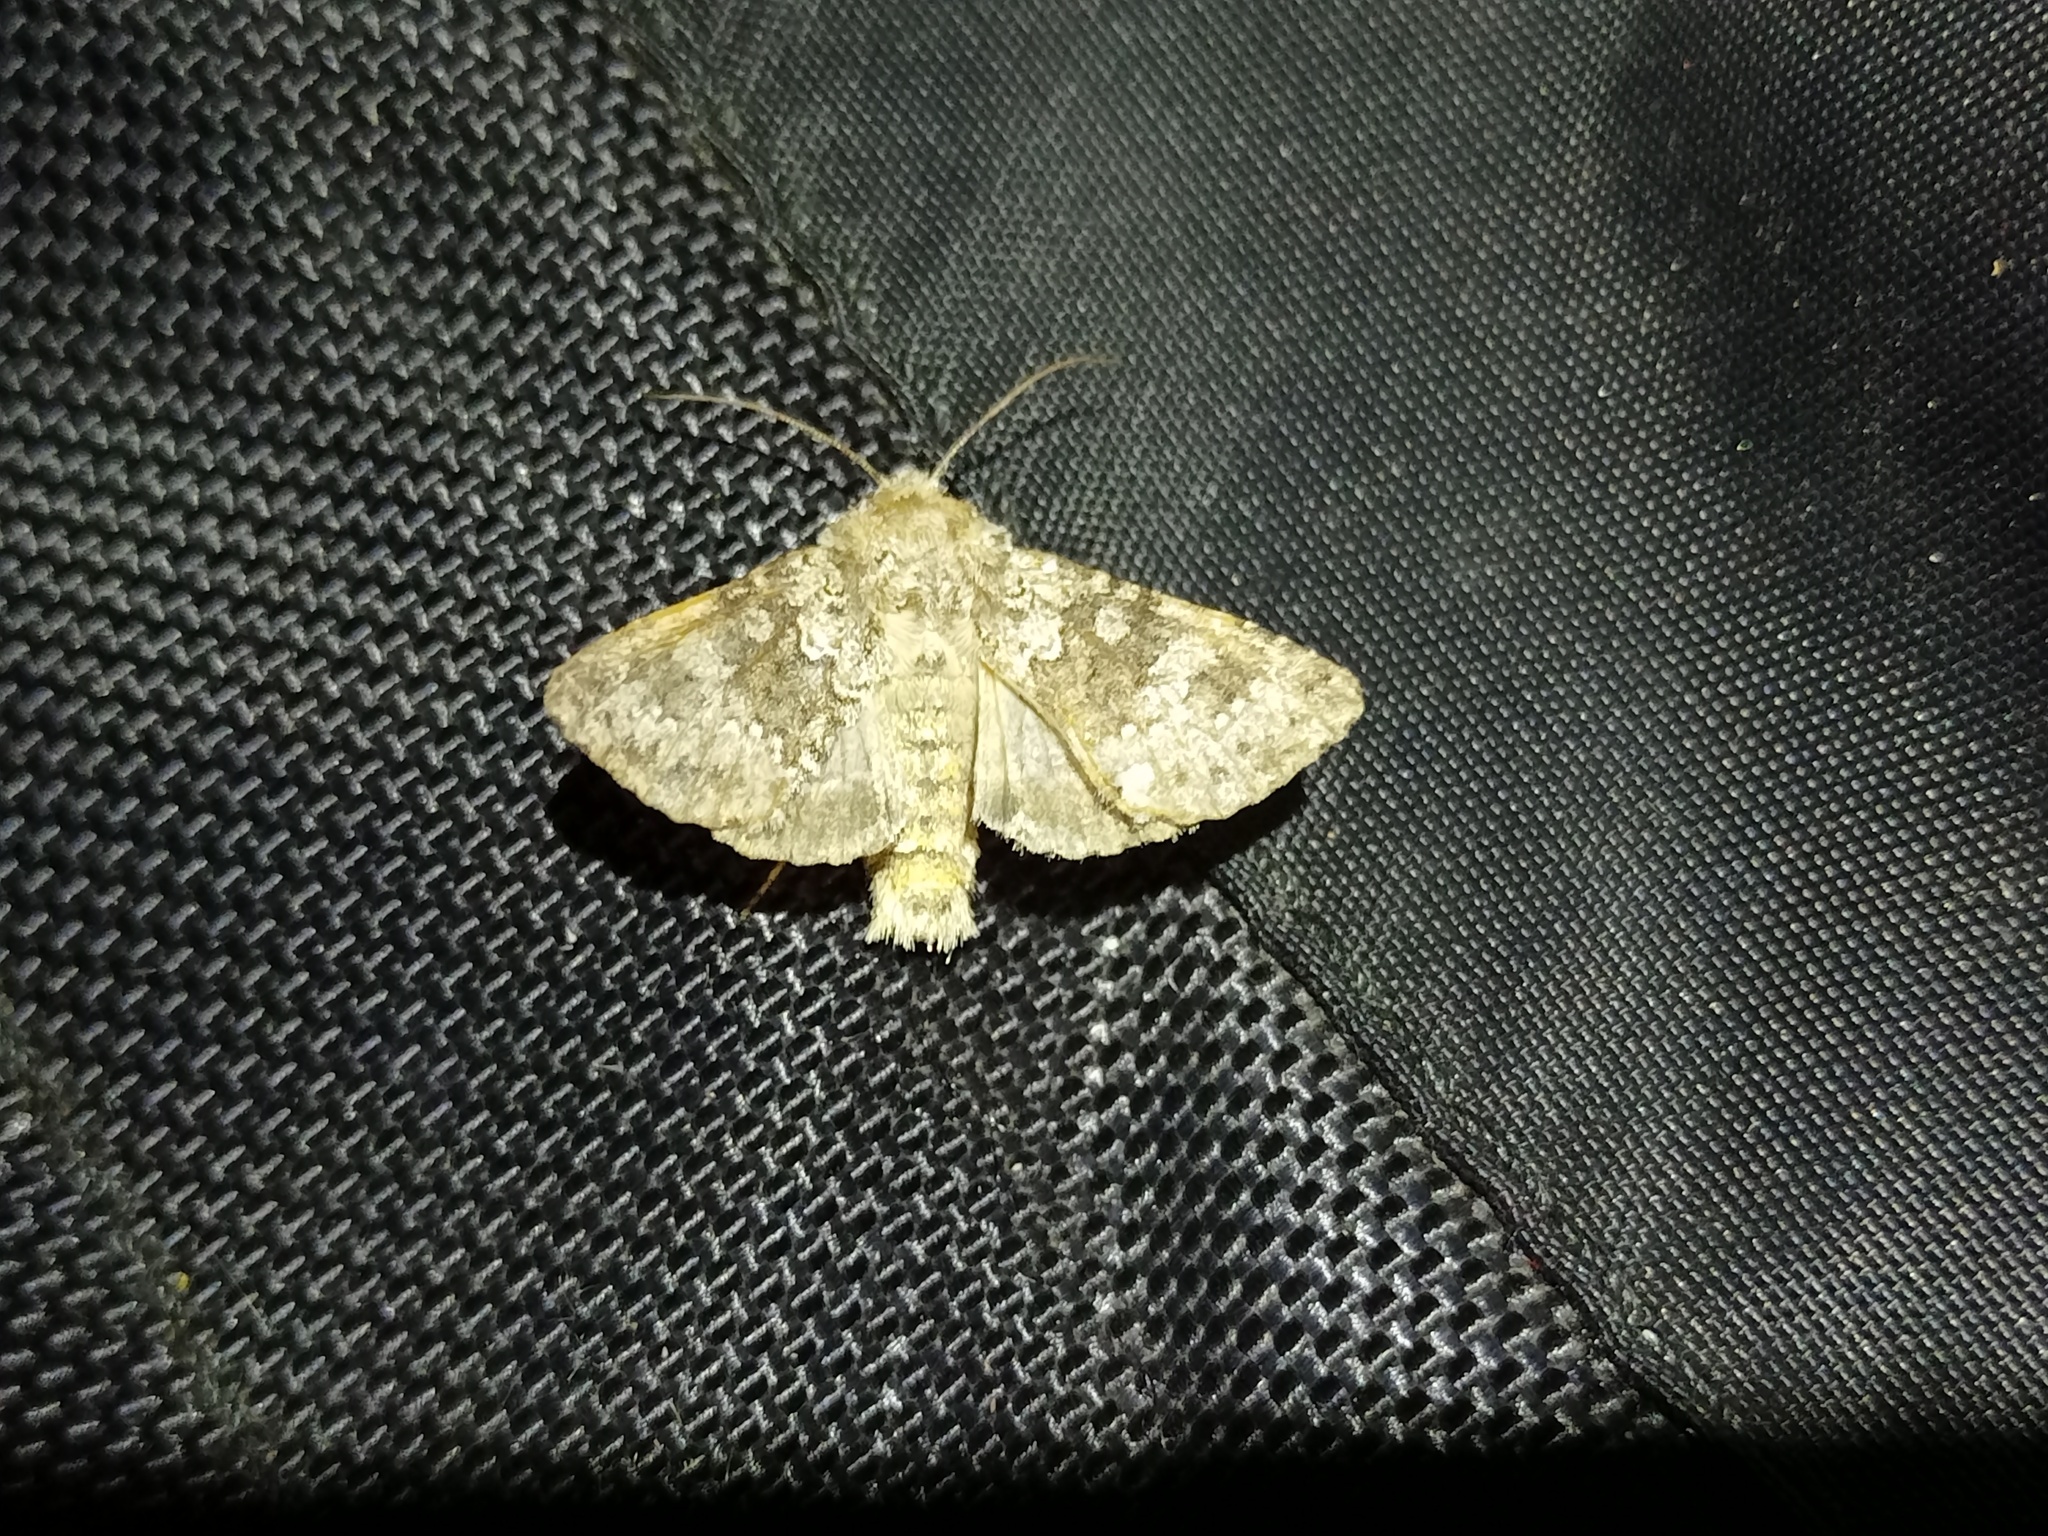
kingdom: Animalia
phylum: Arthropoda
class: Insecta
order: Lepidoptera
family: Noctuidae
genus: Hecatera
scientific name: Hecatera dysodea
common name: Small ranunculus
